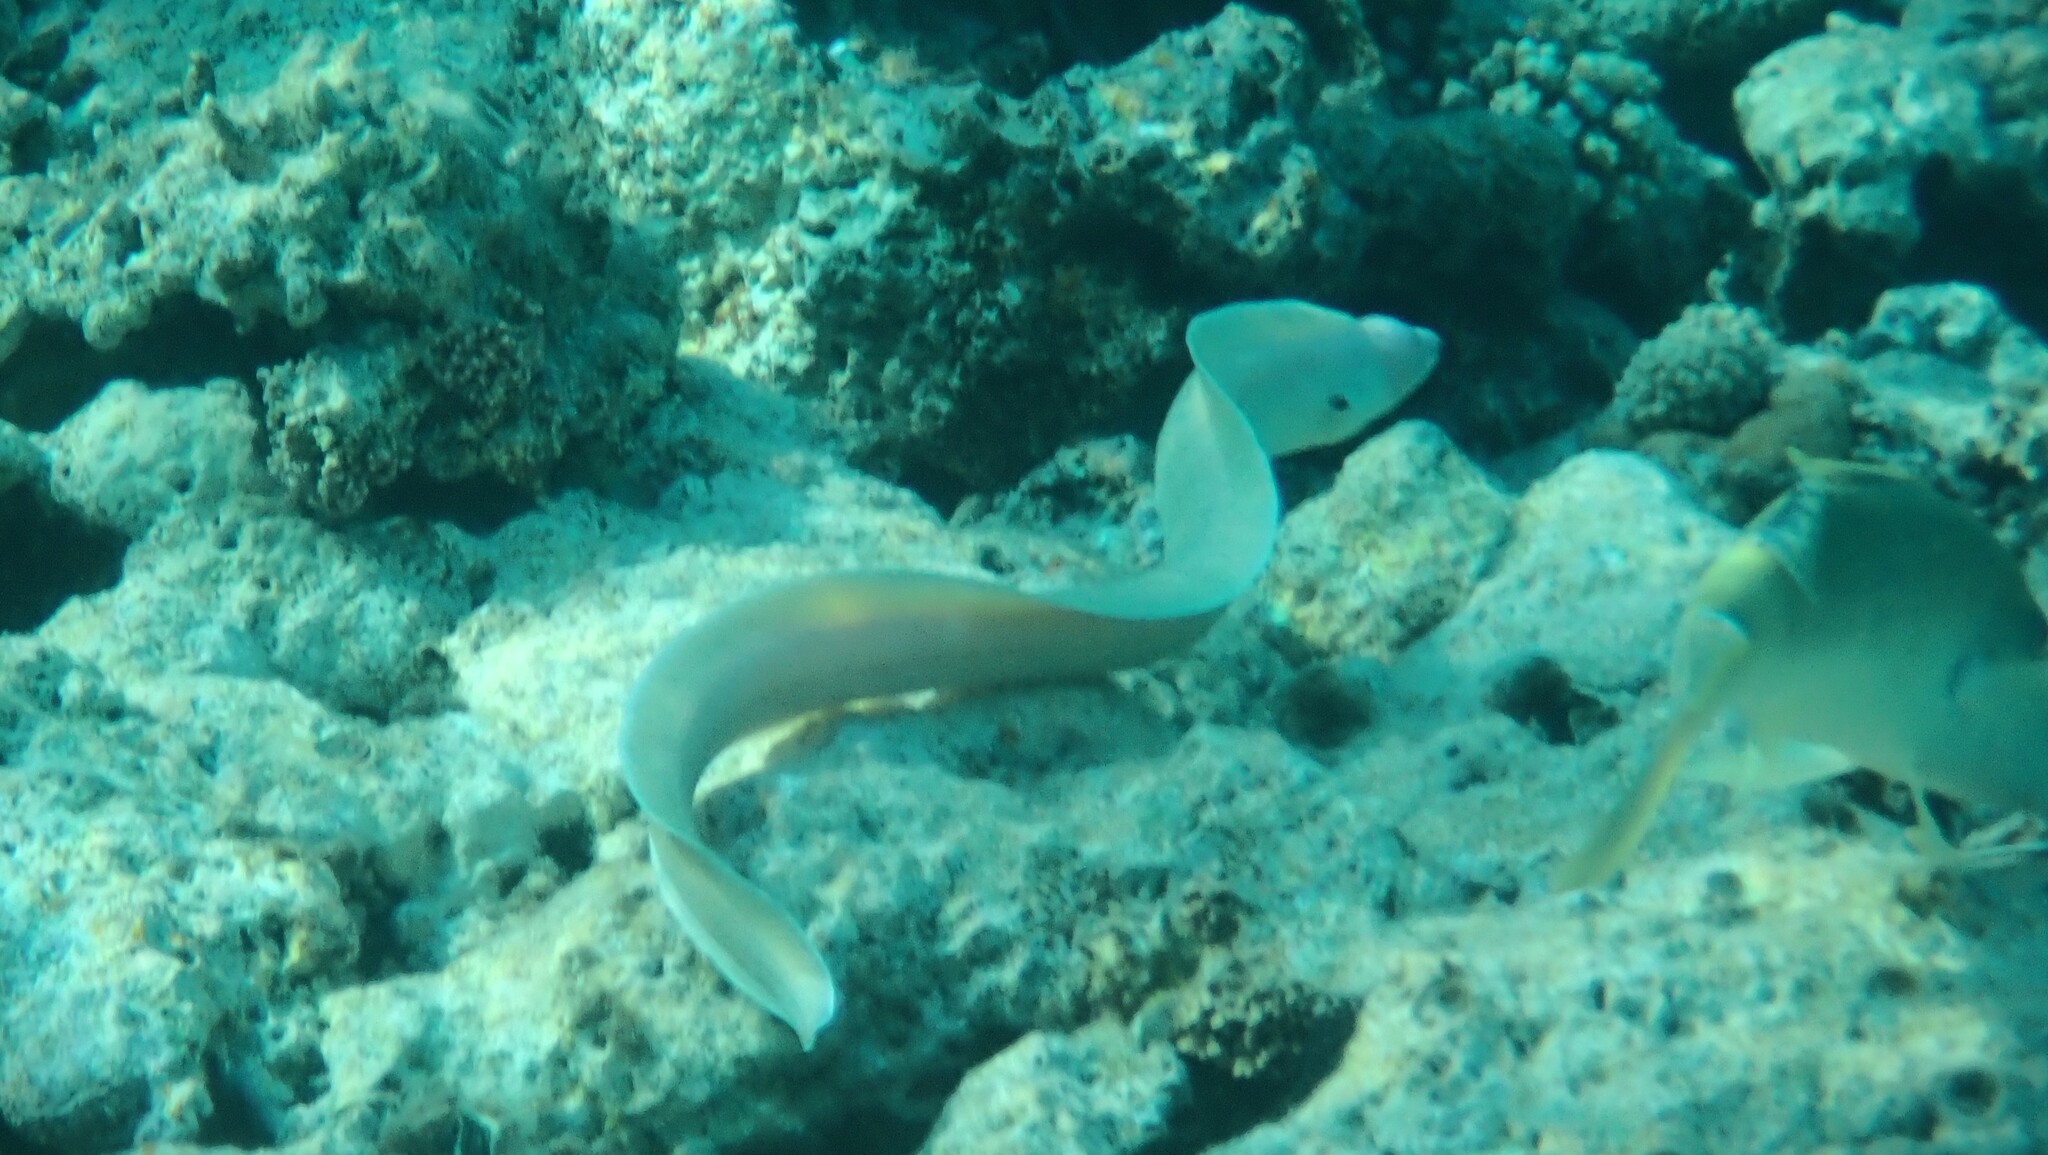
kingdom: Animalia
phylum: Chordata
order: Anguilliformes
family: Muraenidae
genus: Gymnothorax
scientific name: Gymnothorax griseus
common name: Geometric moray
